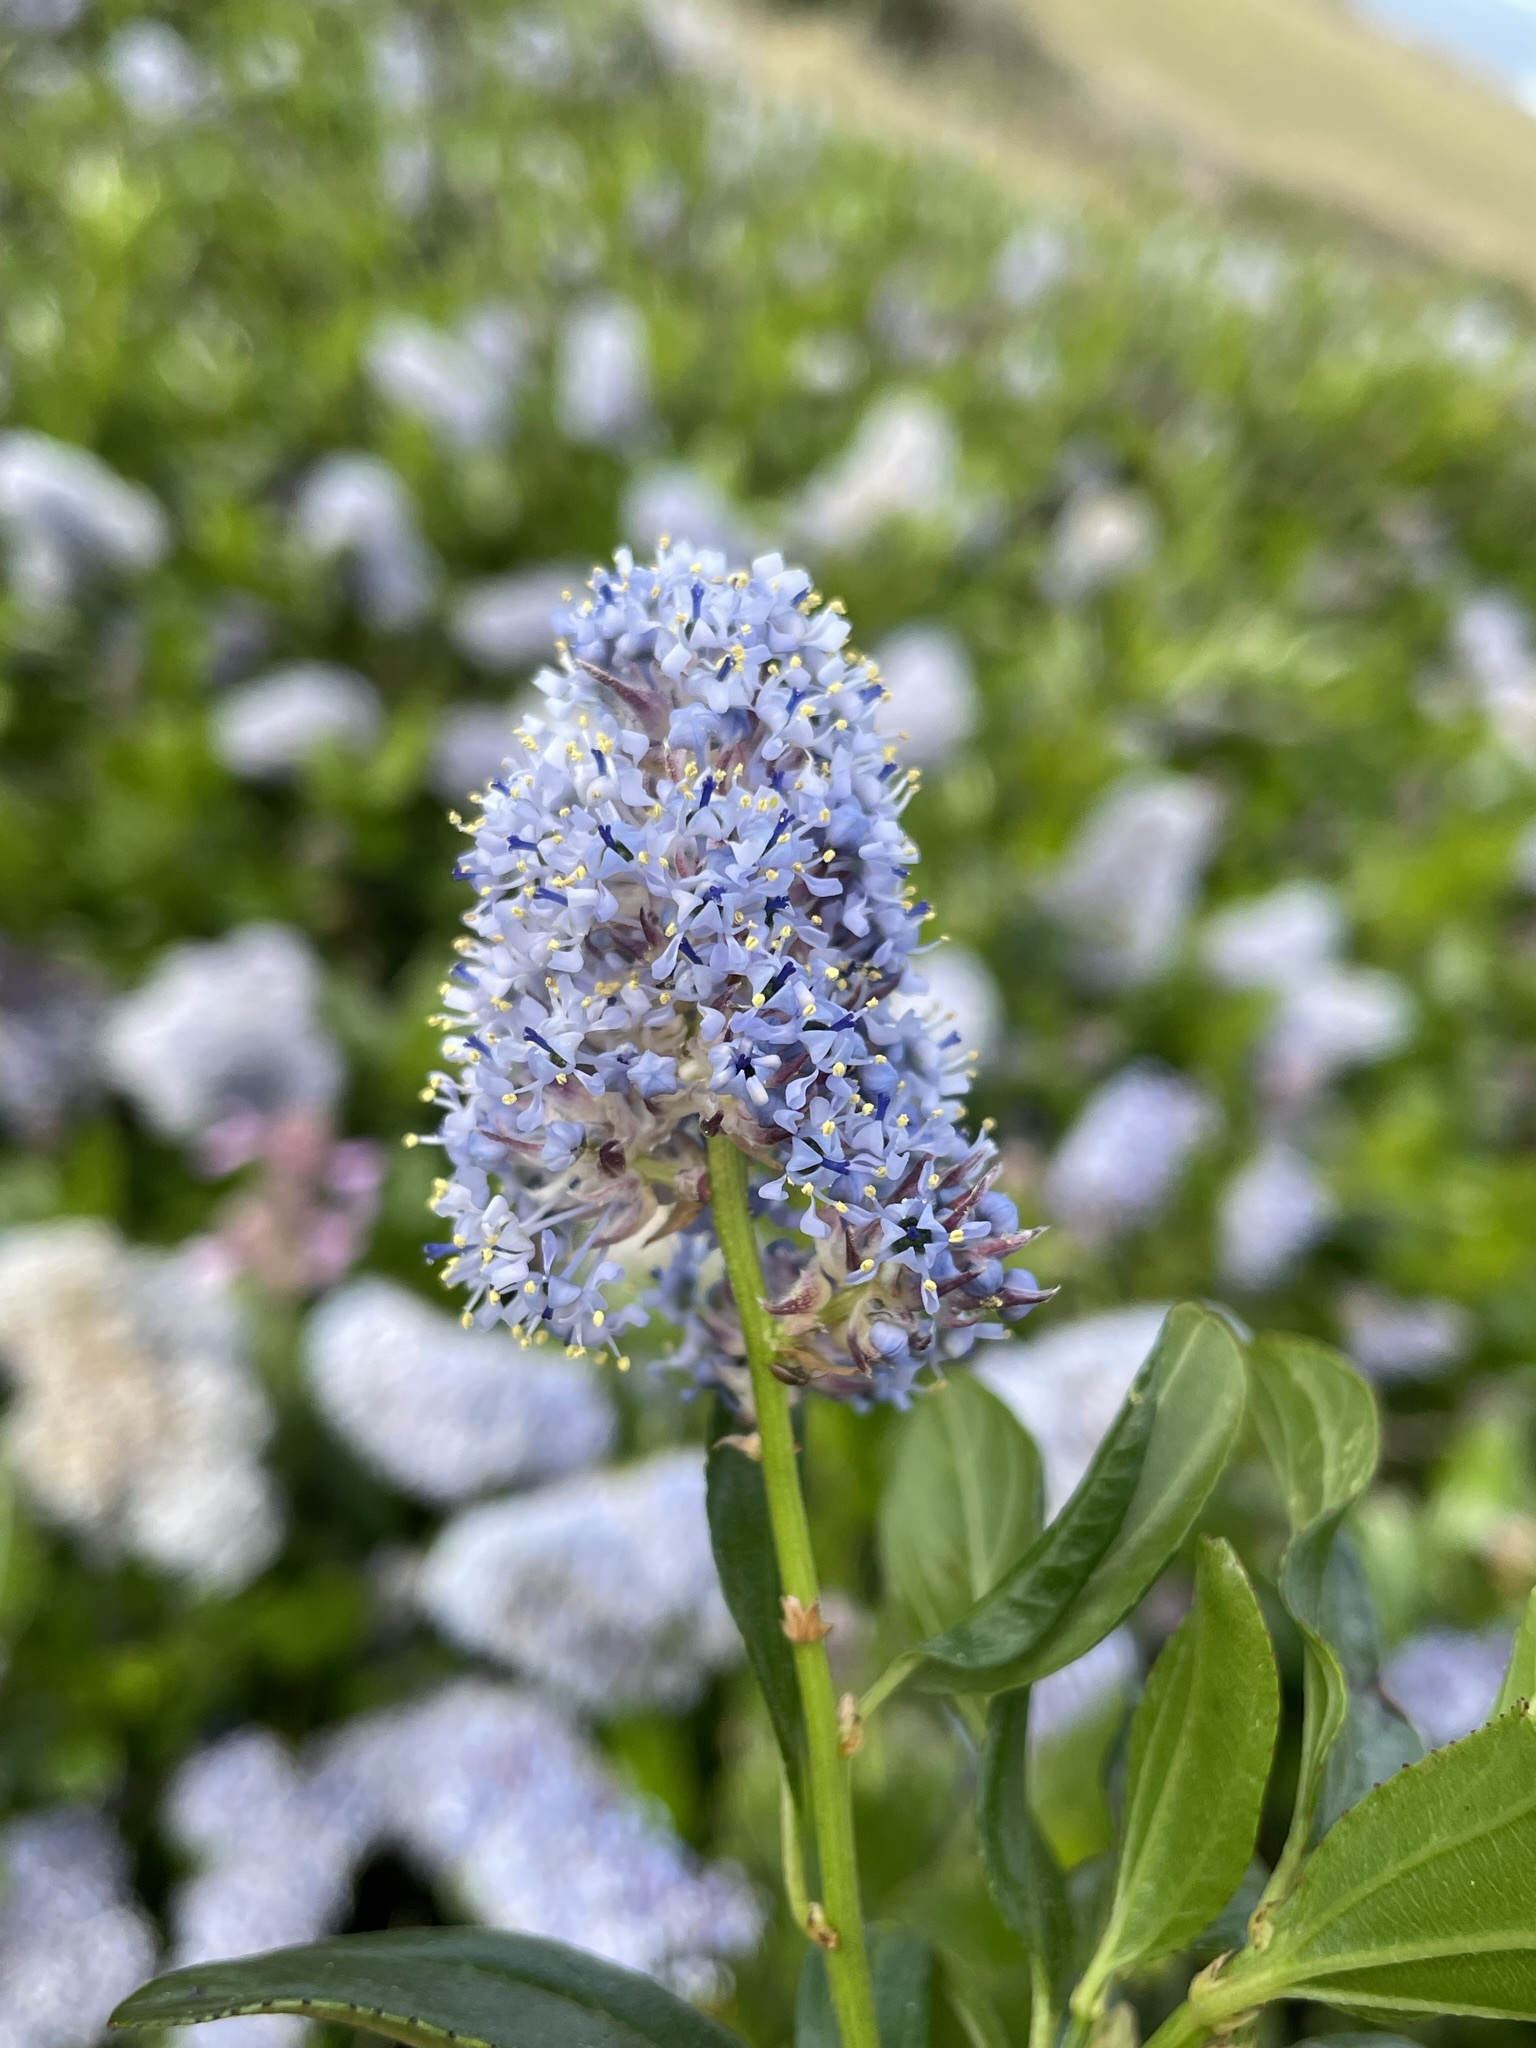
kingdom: Plantae
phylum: Tracheophyta
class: Magnoliopsida
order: Rosales
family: Rhamnaceae
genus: Ceanothus
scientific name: Ceanothus thyrsiflorus
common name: California-lilac
